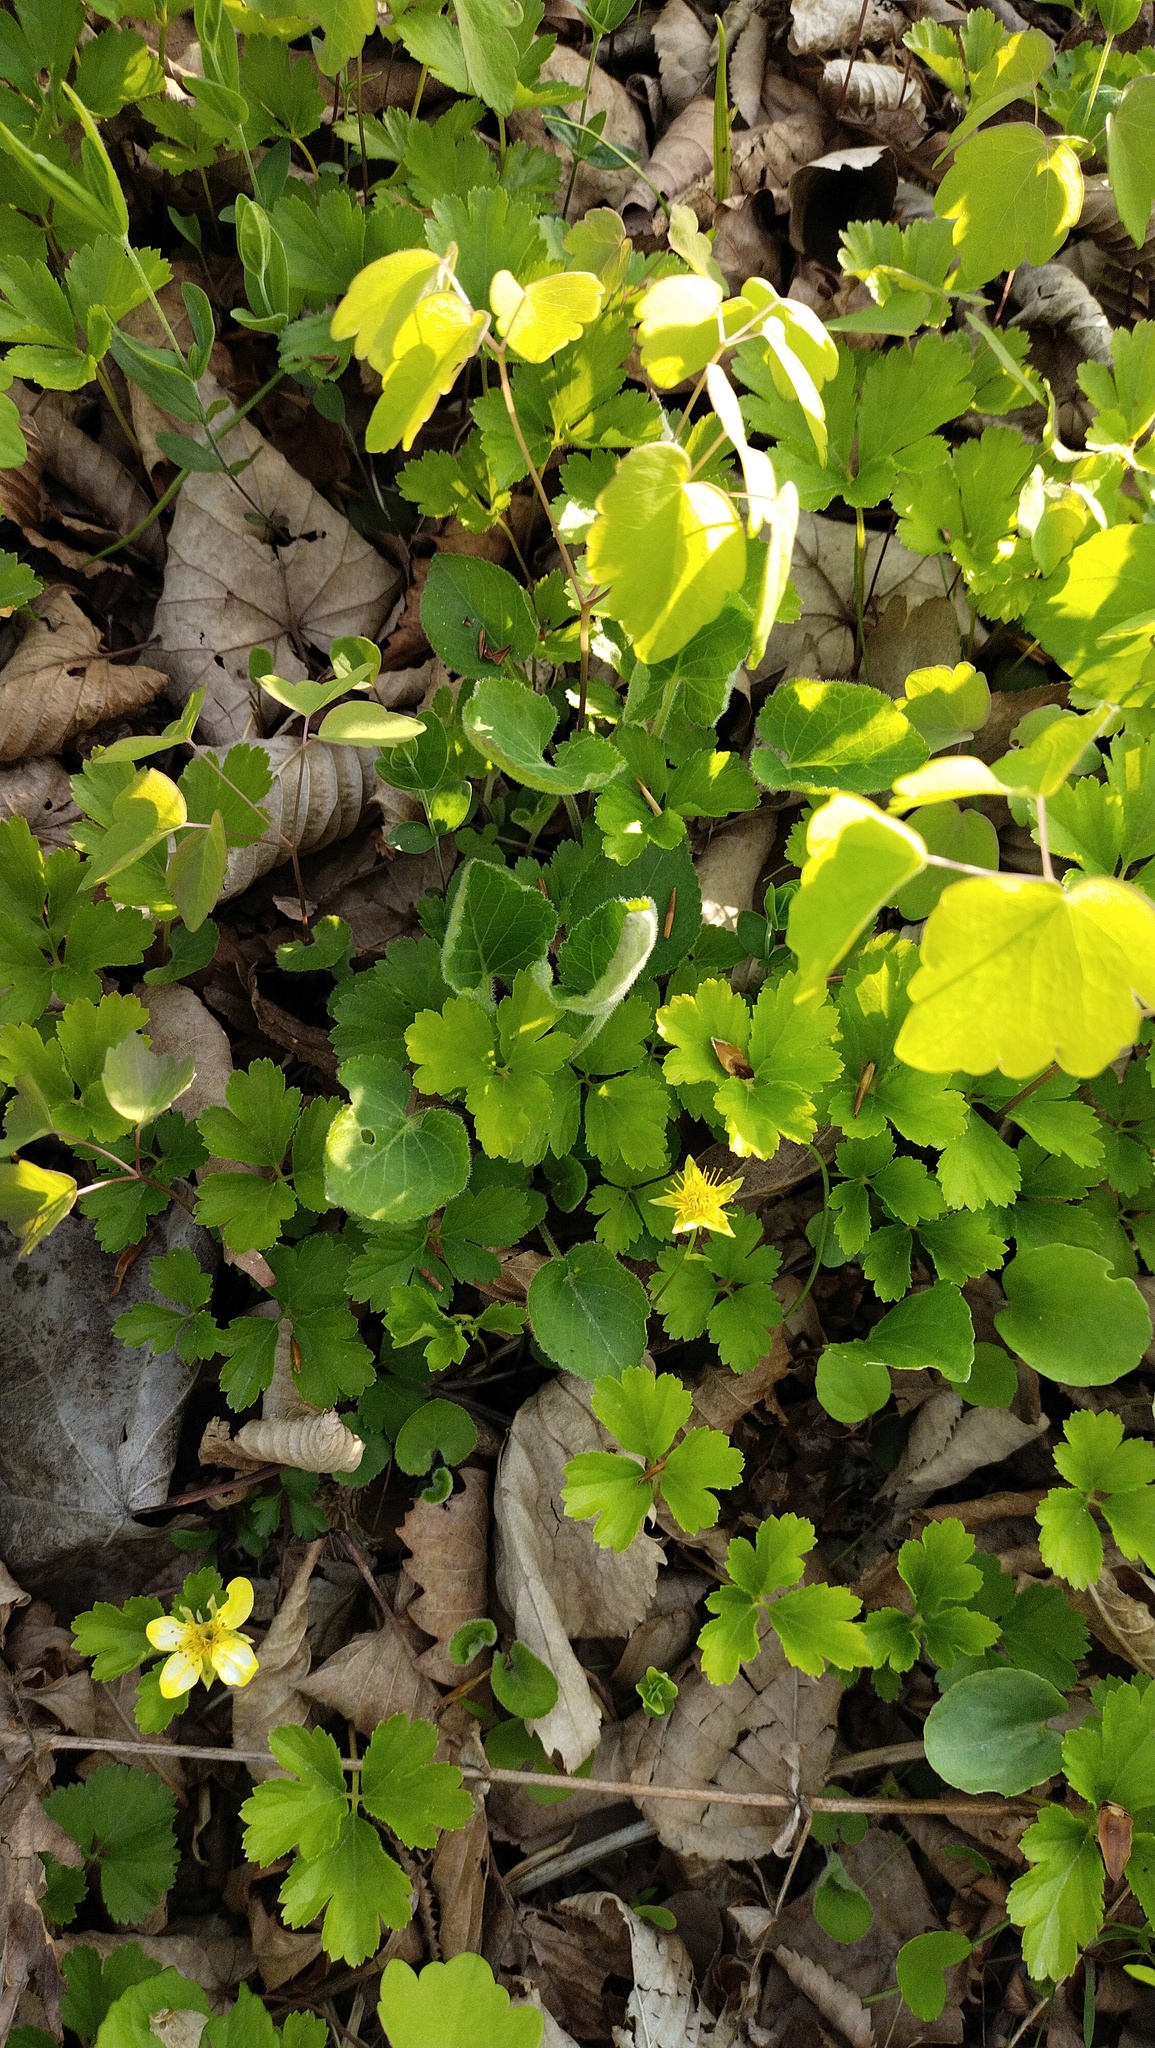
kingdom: Plantae
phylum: Tracheophyta
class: Magnoliopsida
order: Rosales
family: Rosaceae
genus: Geum
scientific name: Geum ternatum
